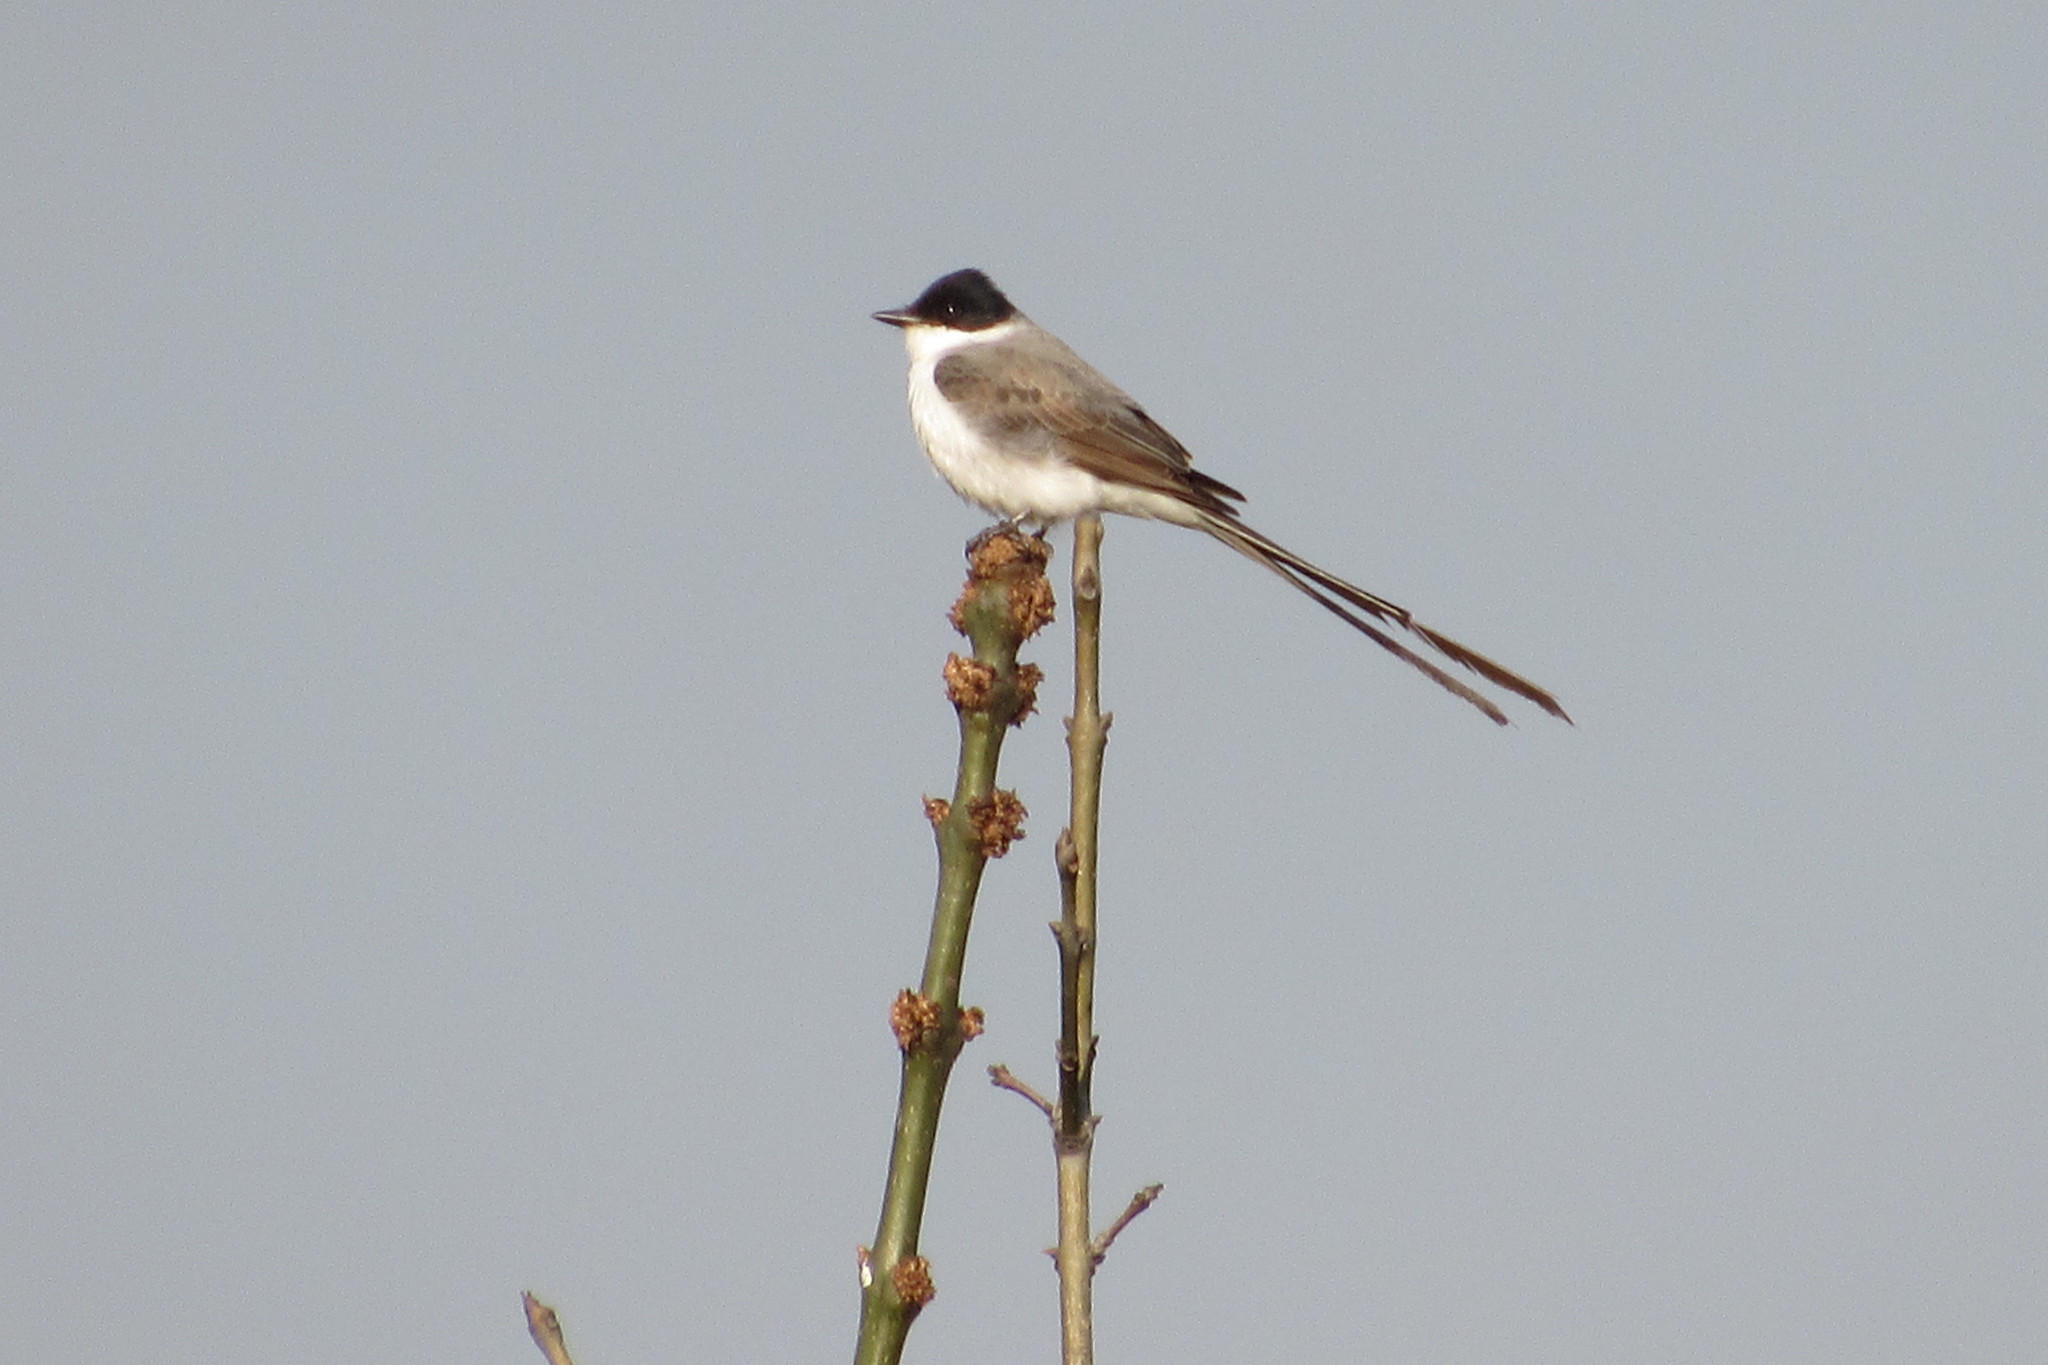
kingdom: Animalia
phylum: Chordata
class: Aves
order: Passeriformes
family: Tyrannidae
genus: Tyrannus
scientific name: Tyrannus savana
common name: Fork-tailed flycatcher
